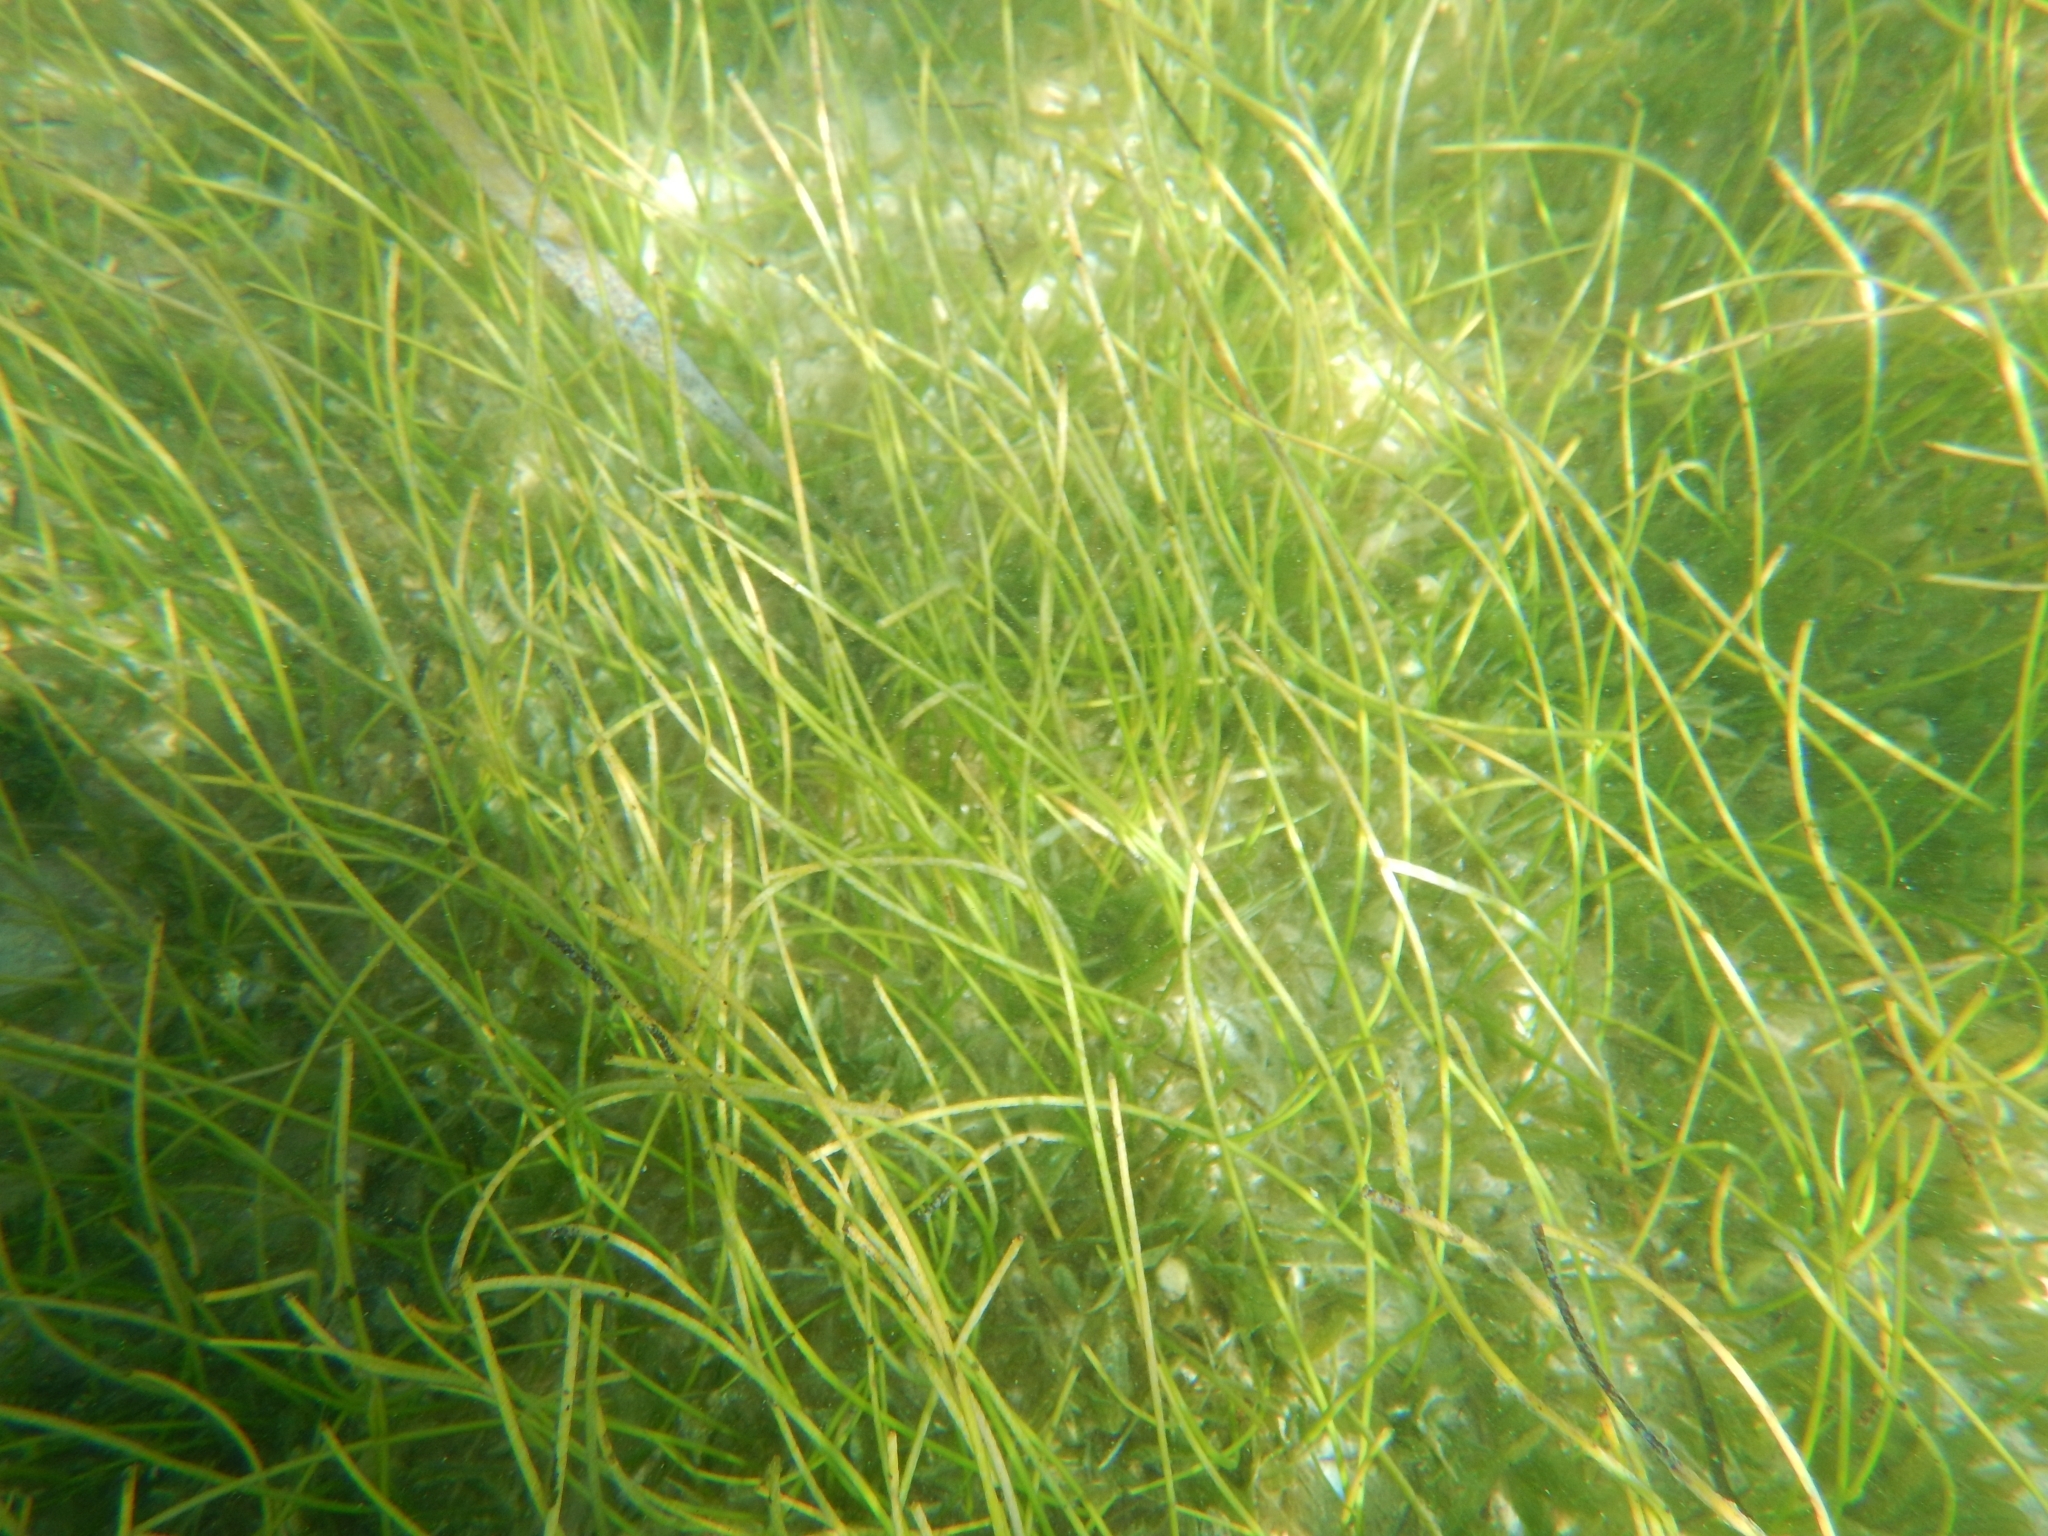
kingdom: Plantae
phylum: Tracheophyta
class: Liliopsida
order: Alismatales
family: Cymodoceaceae
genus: Syringodium
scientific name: Syringodium filiforme
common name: Manatee grass
